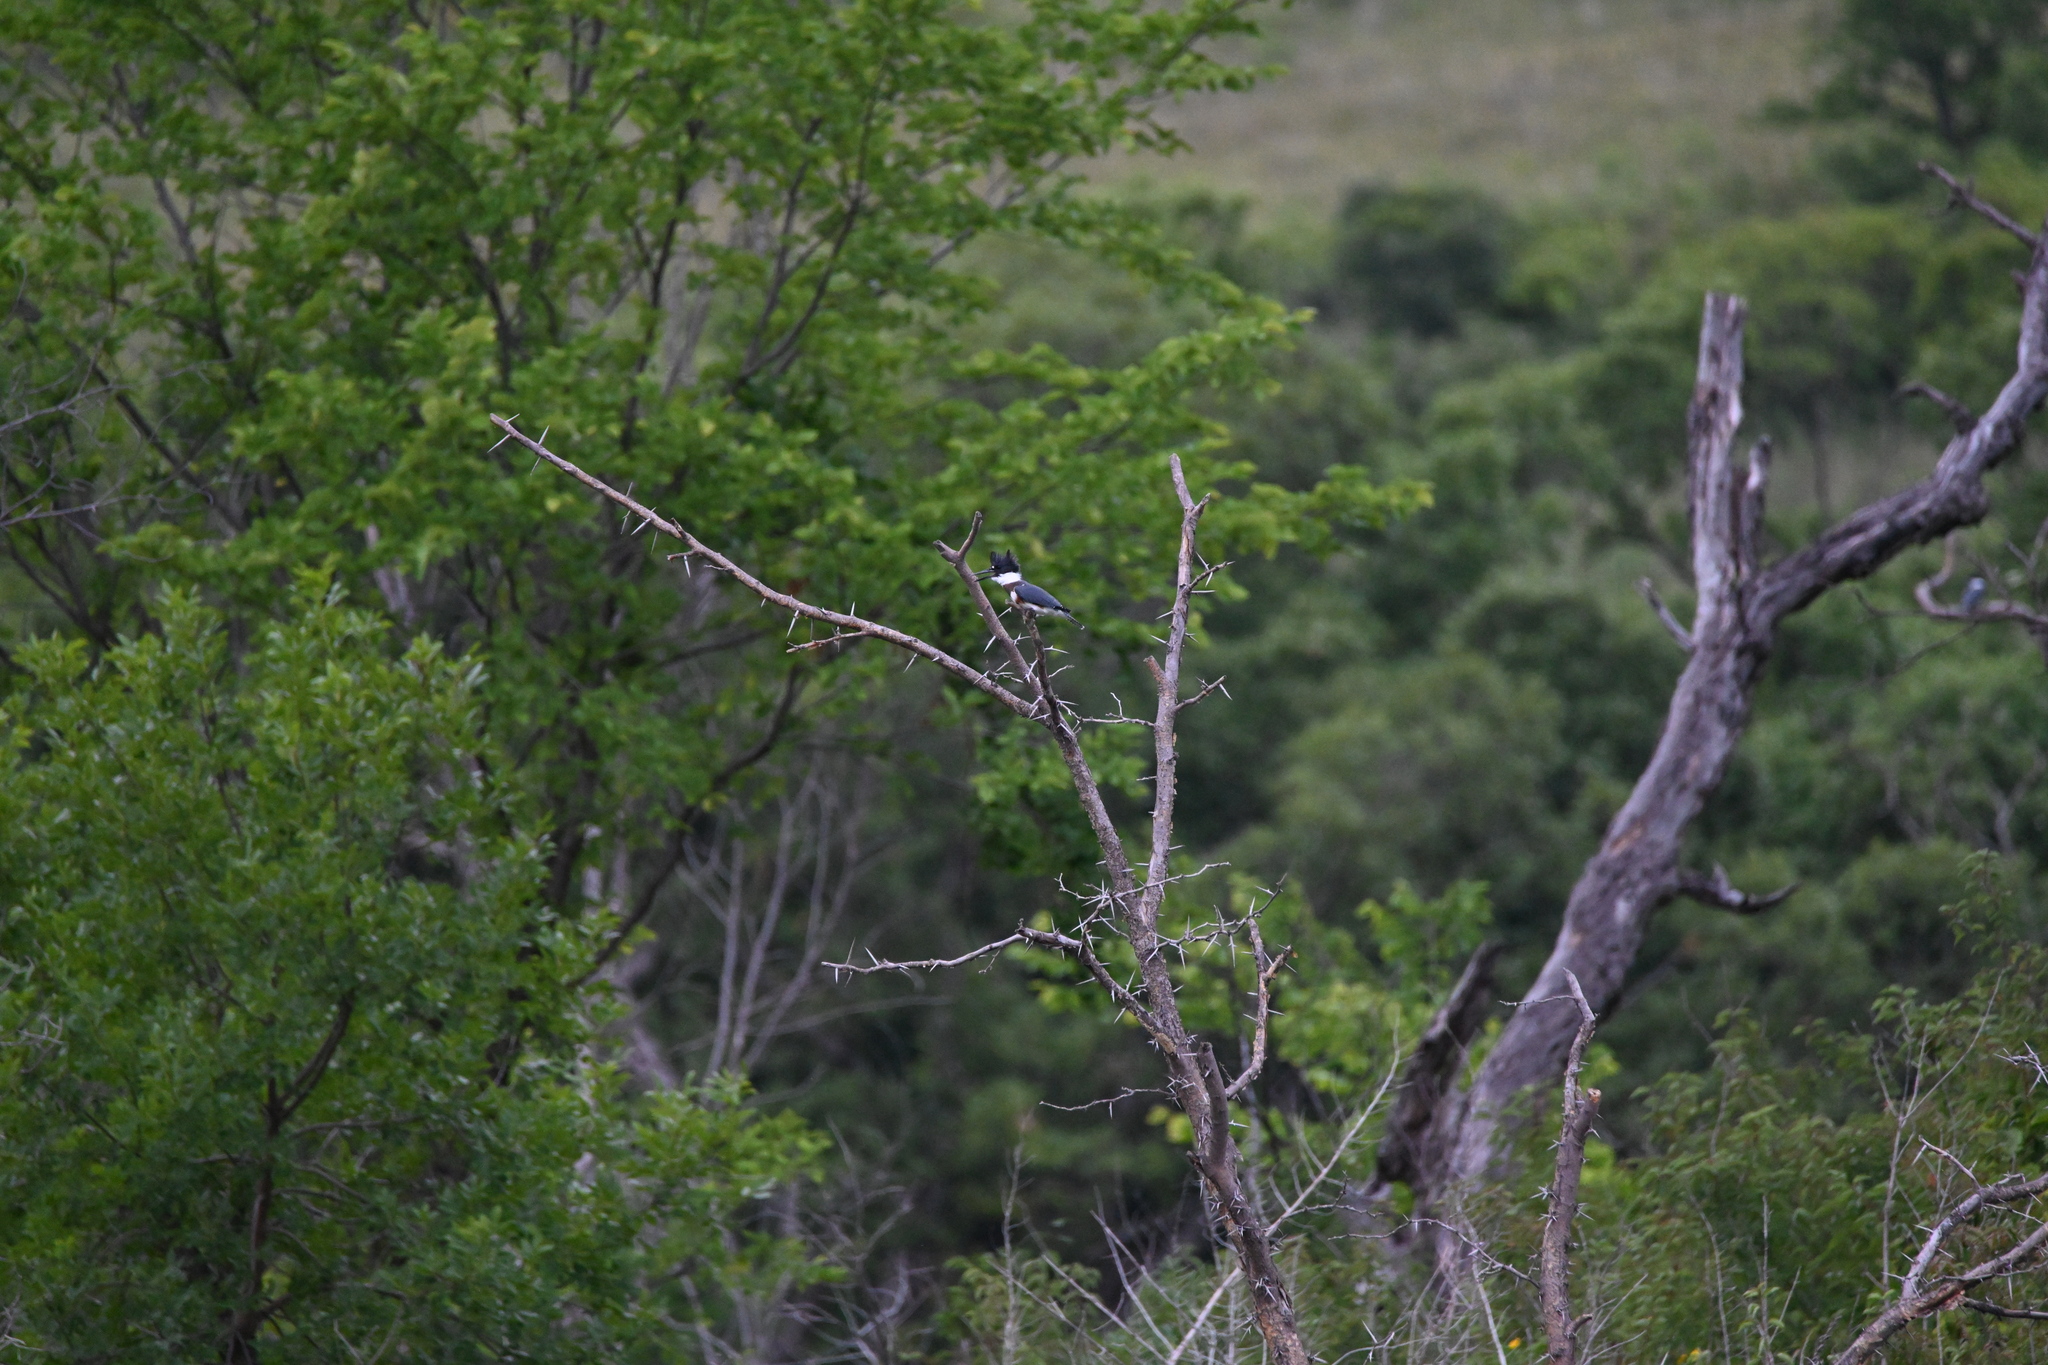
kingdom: Animalia
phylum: Chordata
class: Aves
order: Coraciiformes
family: Alcedinidae
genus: Megaceryle
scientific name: Megaceryle alcyon
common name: Belted kingfisher
